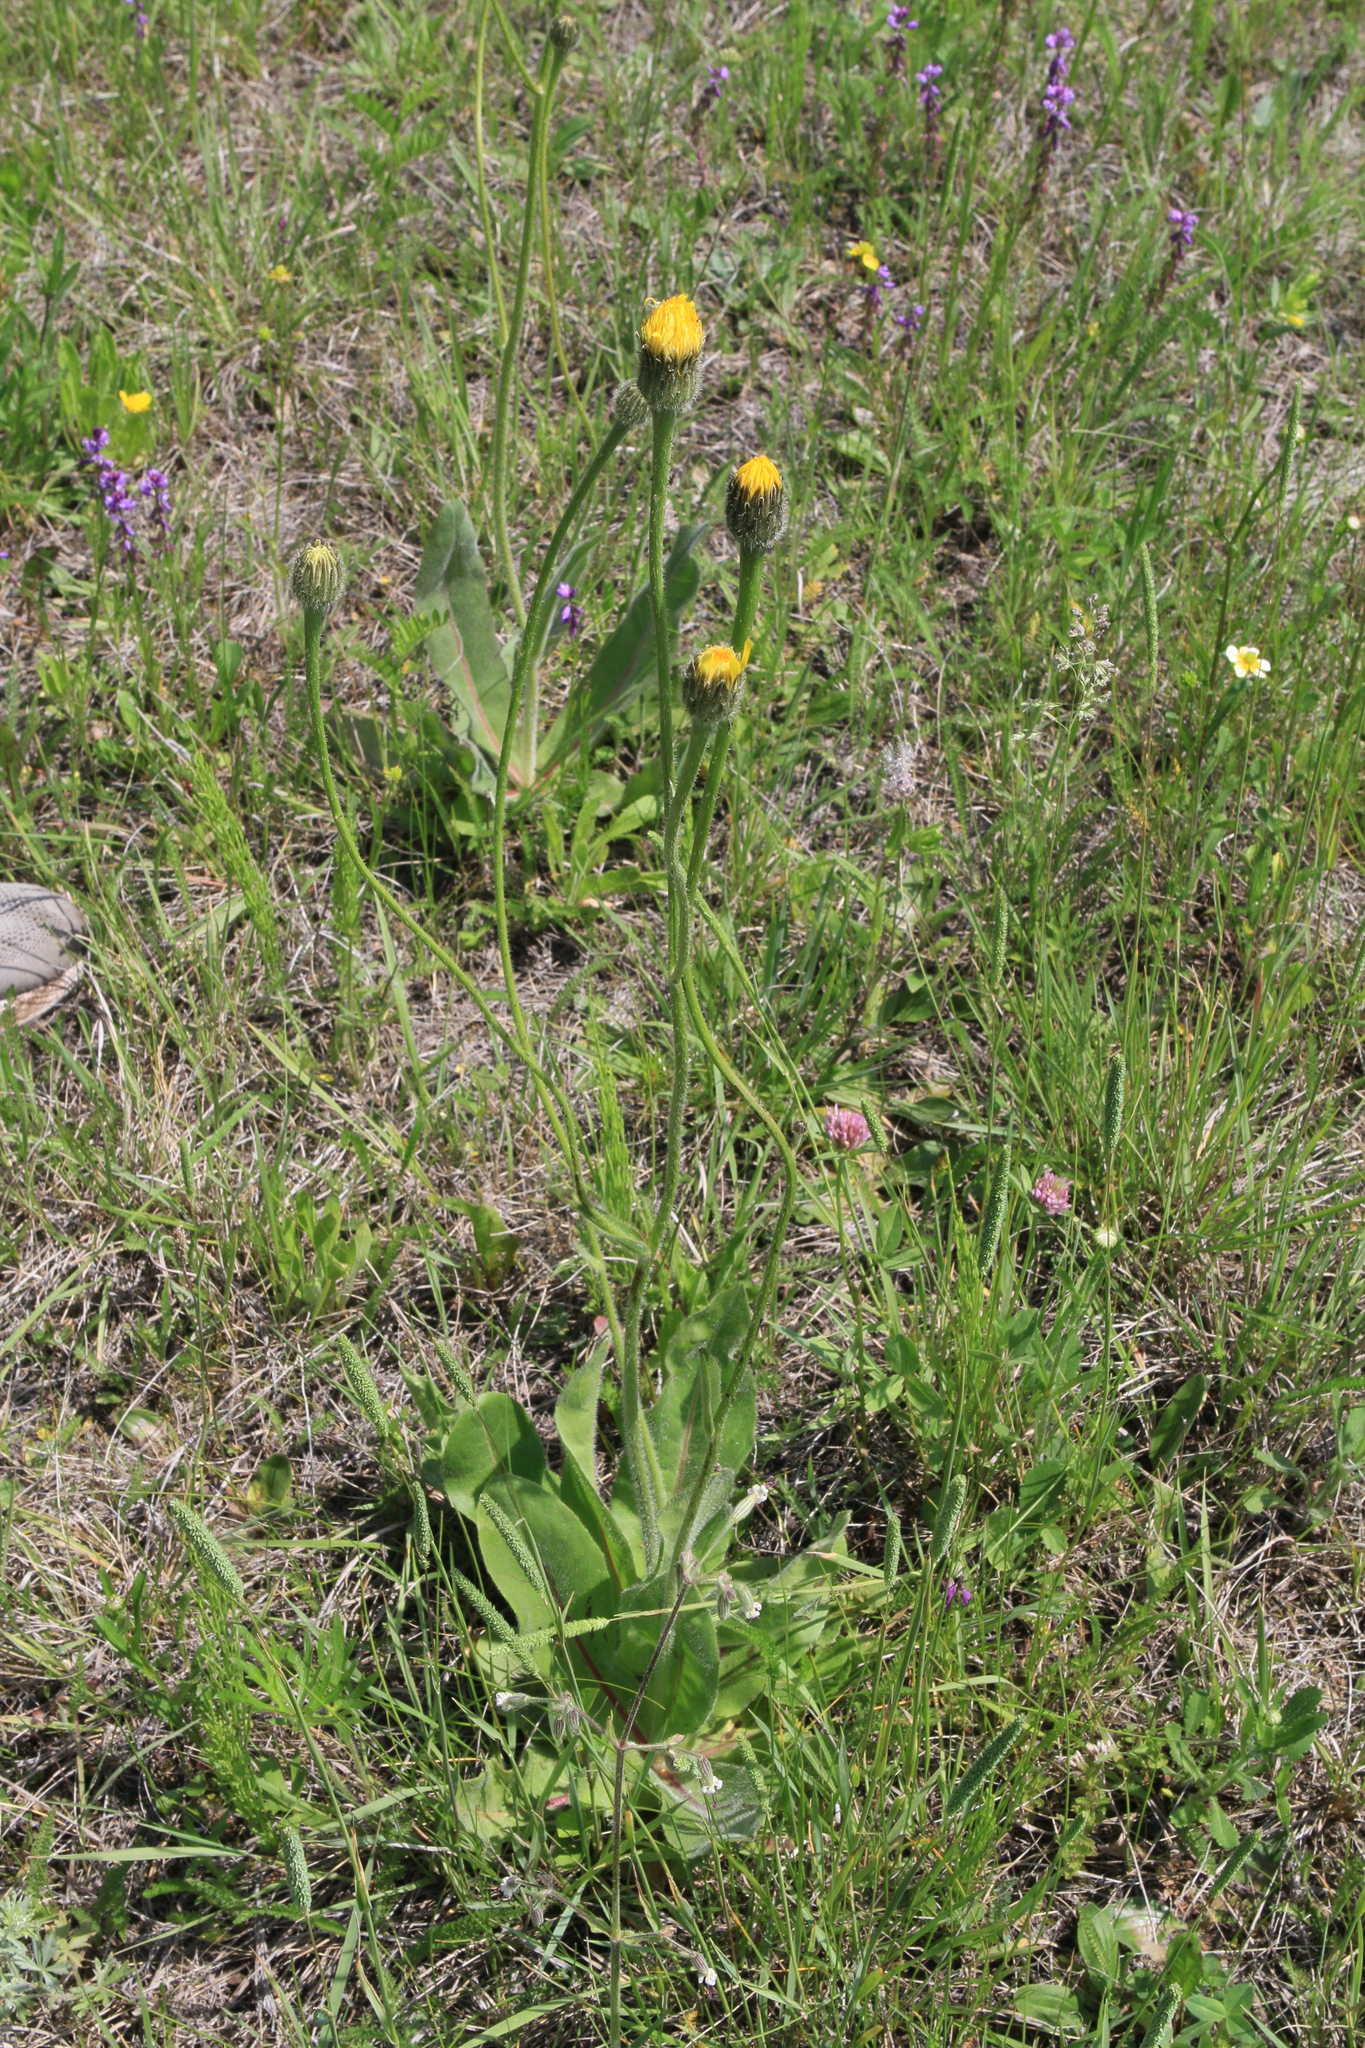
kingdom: Plantae
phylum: Tracheophyta
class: Magnoliopsida
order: Asterales
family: Asteraceae
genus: Trommsdorffia
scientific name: Trommsdorffia maculata
